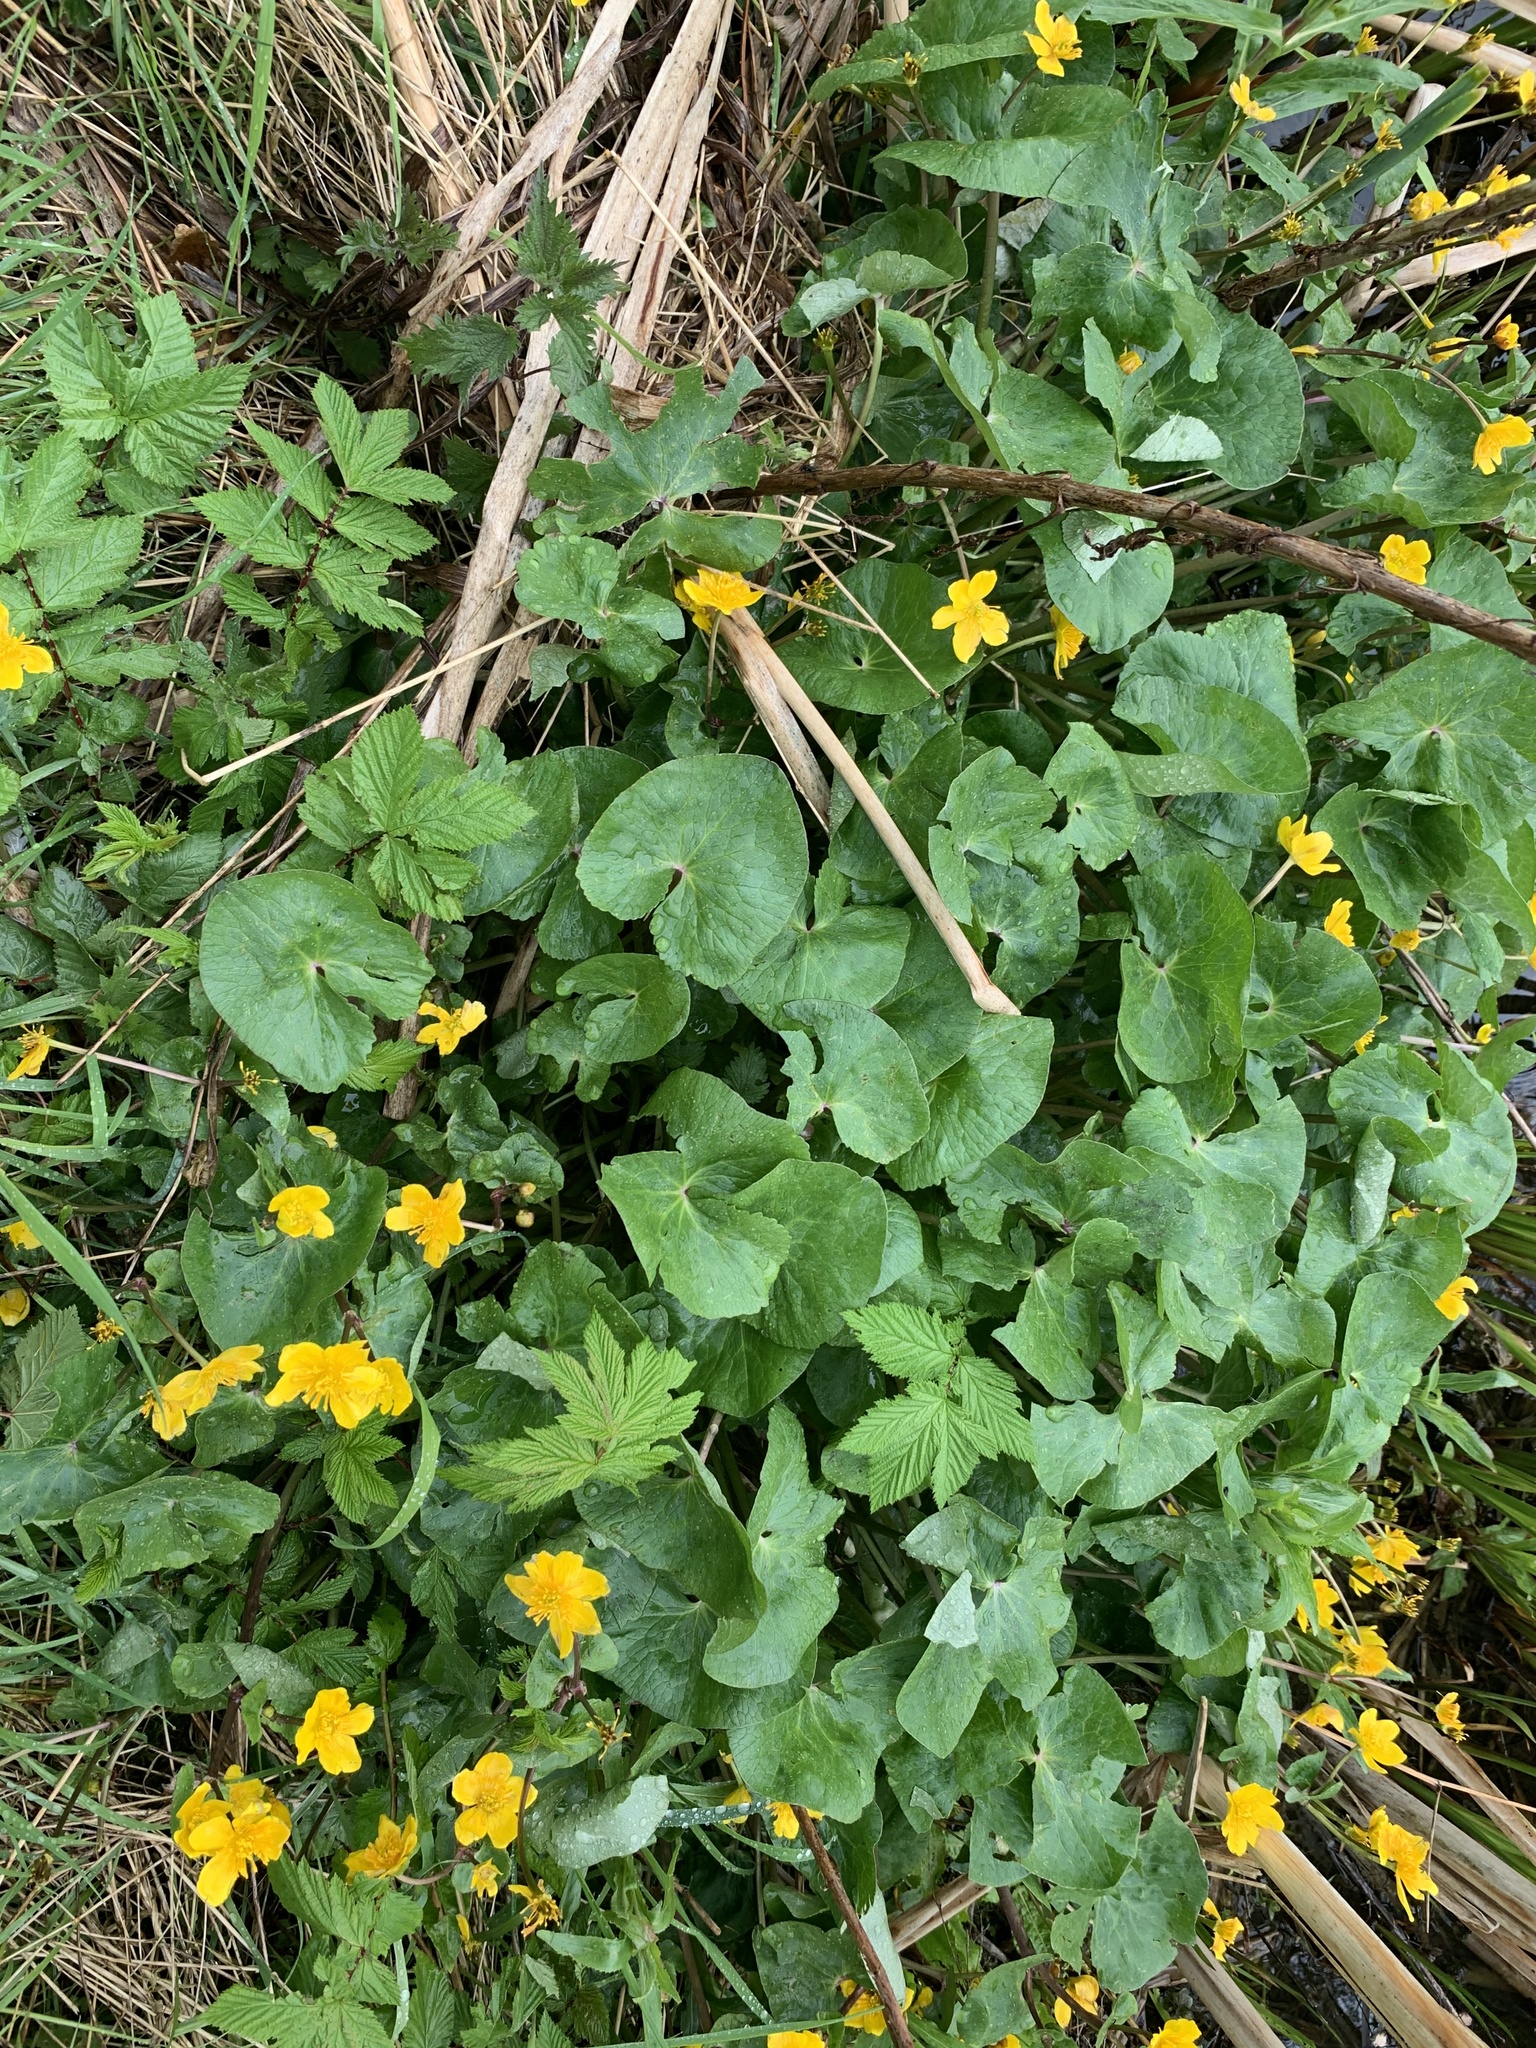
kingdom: Plantae
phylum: Tracheophyta
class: Magnoliopsida
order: Ranunculales
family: Ranunculaceae
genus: Caltha
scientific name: Caltha palustris
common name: Marsh marigold
